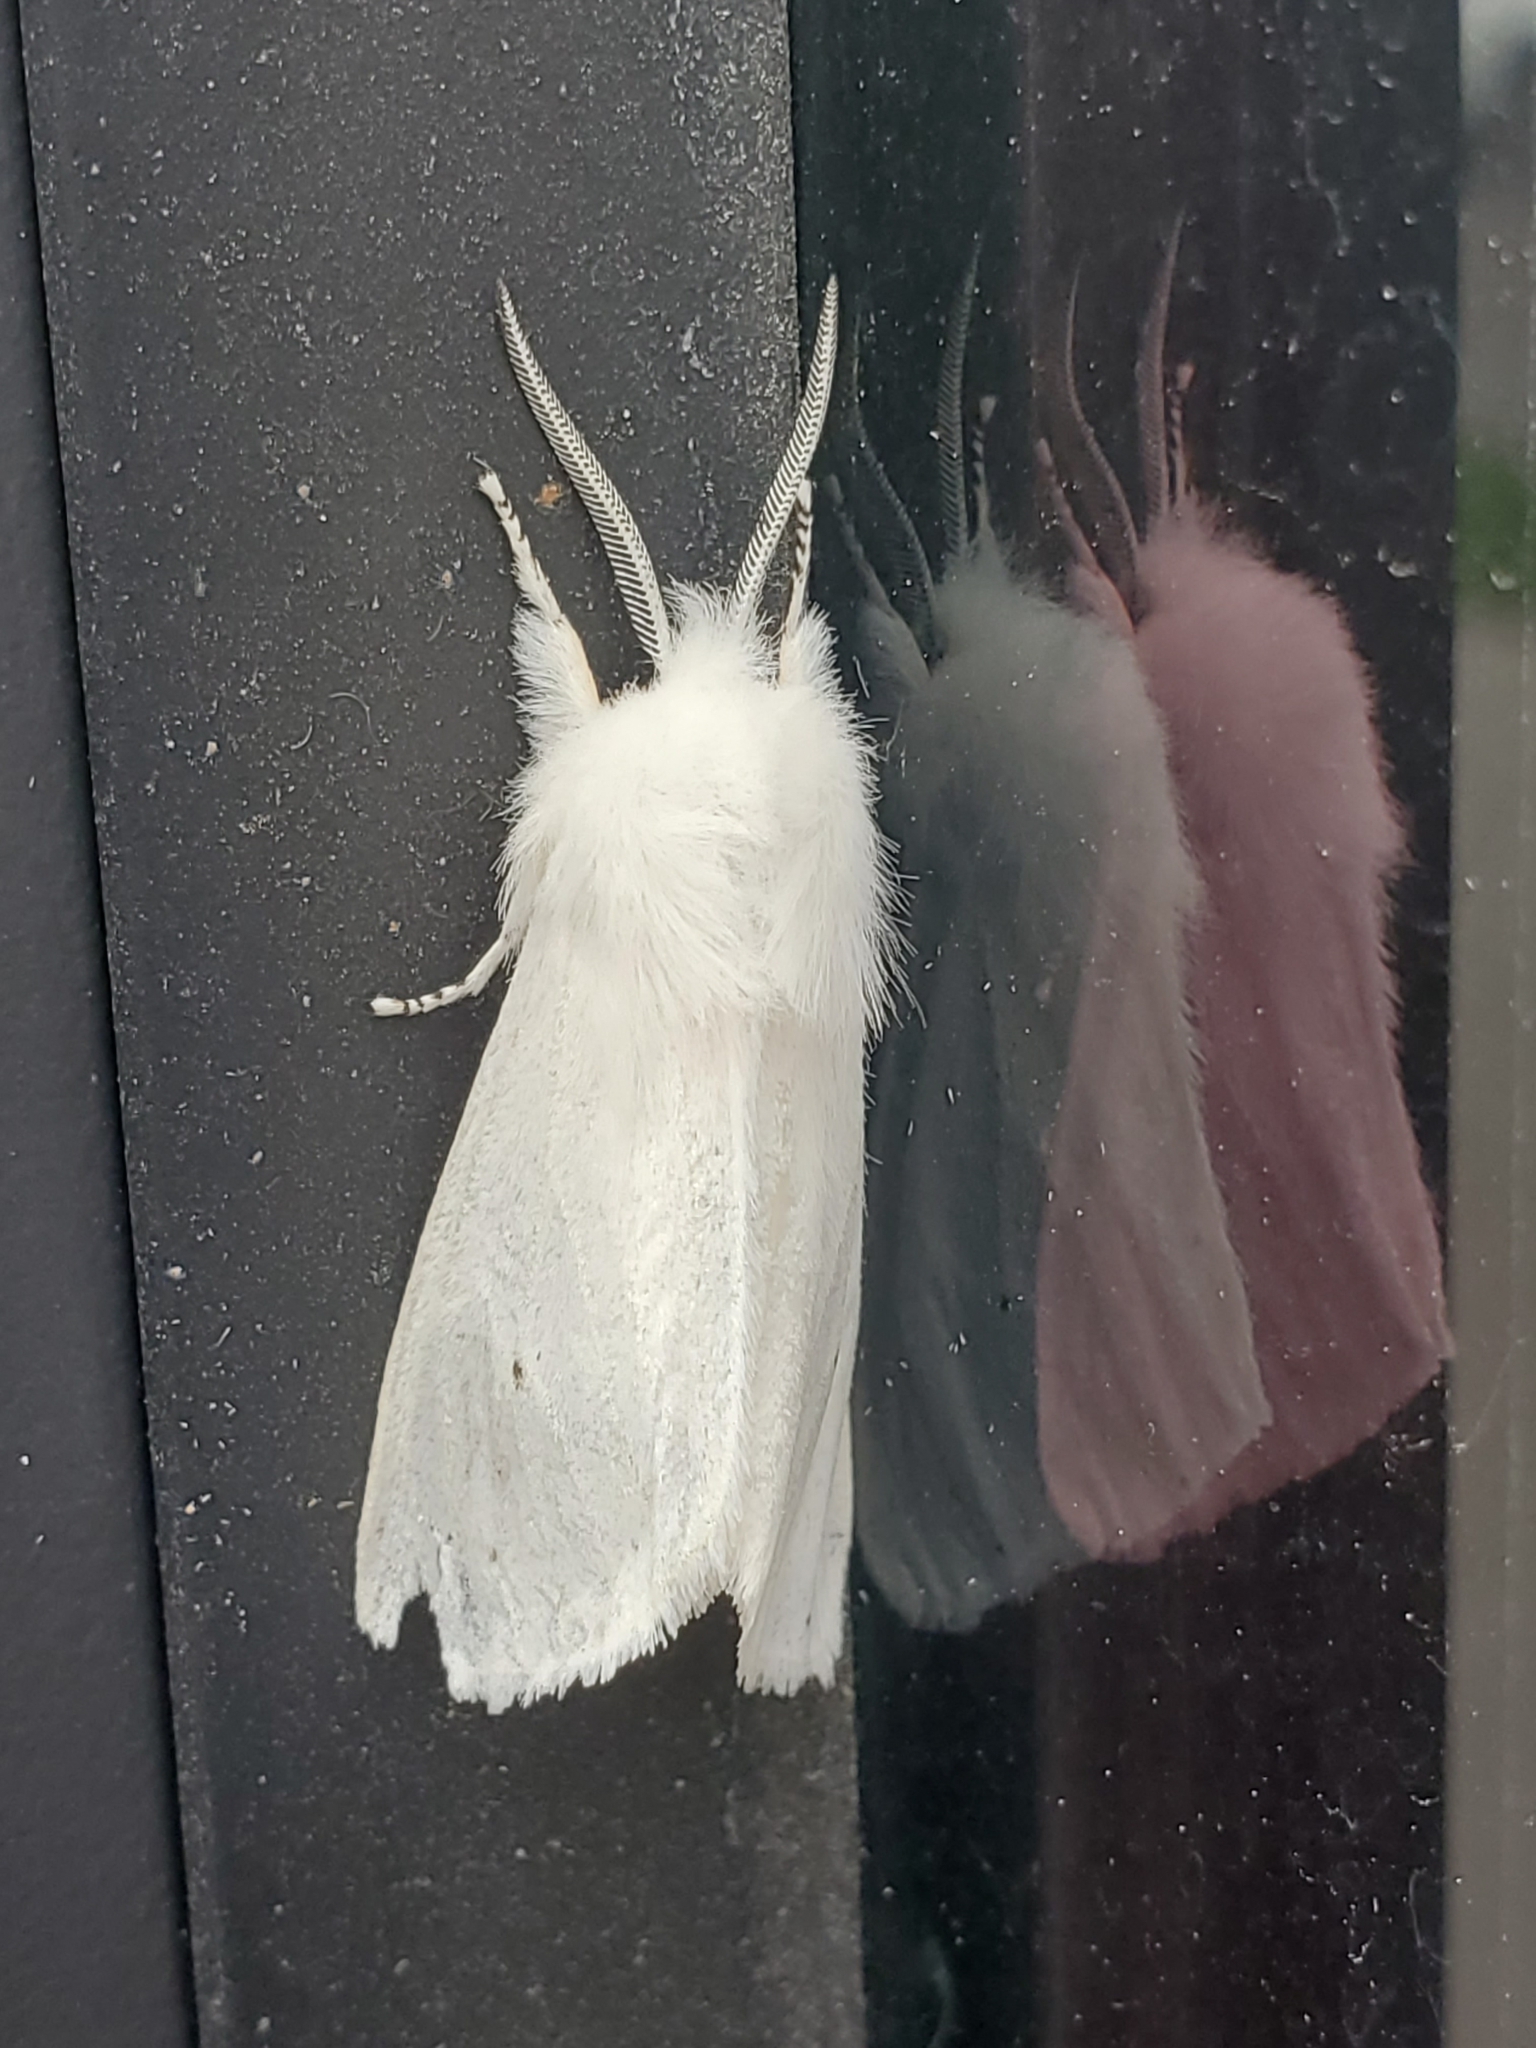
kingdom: Animalia
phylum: Arthropoda
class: Insecta
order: Lepidoptera
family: Erebidae
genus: Spilosoma
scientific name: Spilosoma virginica
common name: Virginia tiger moth
